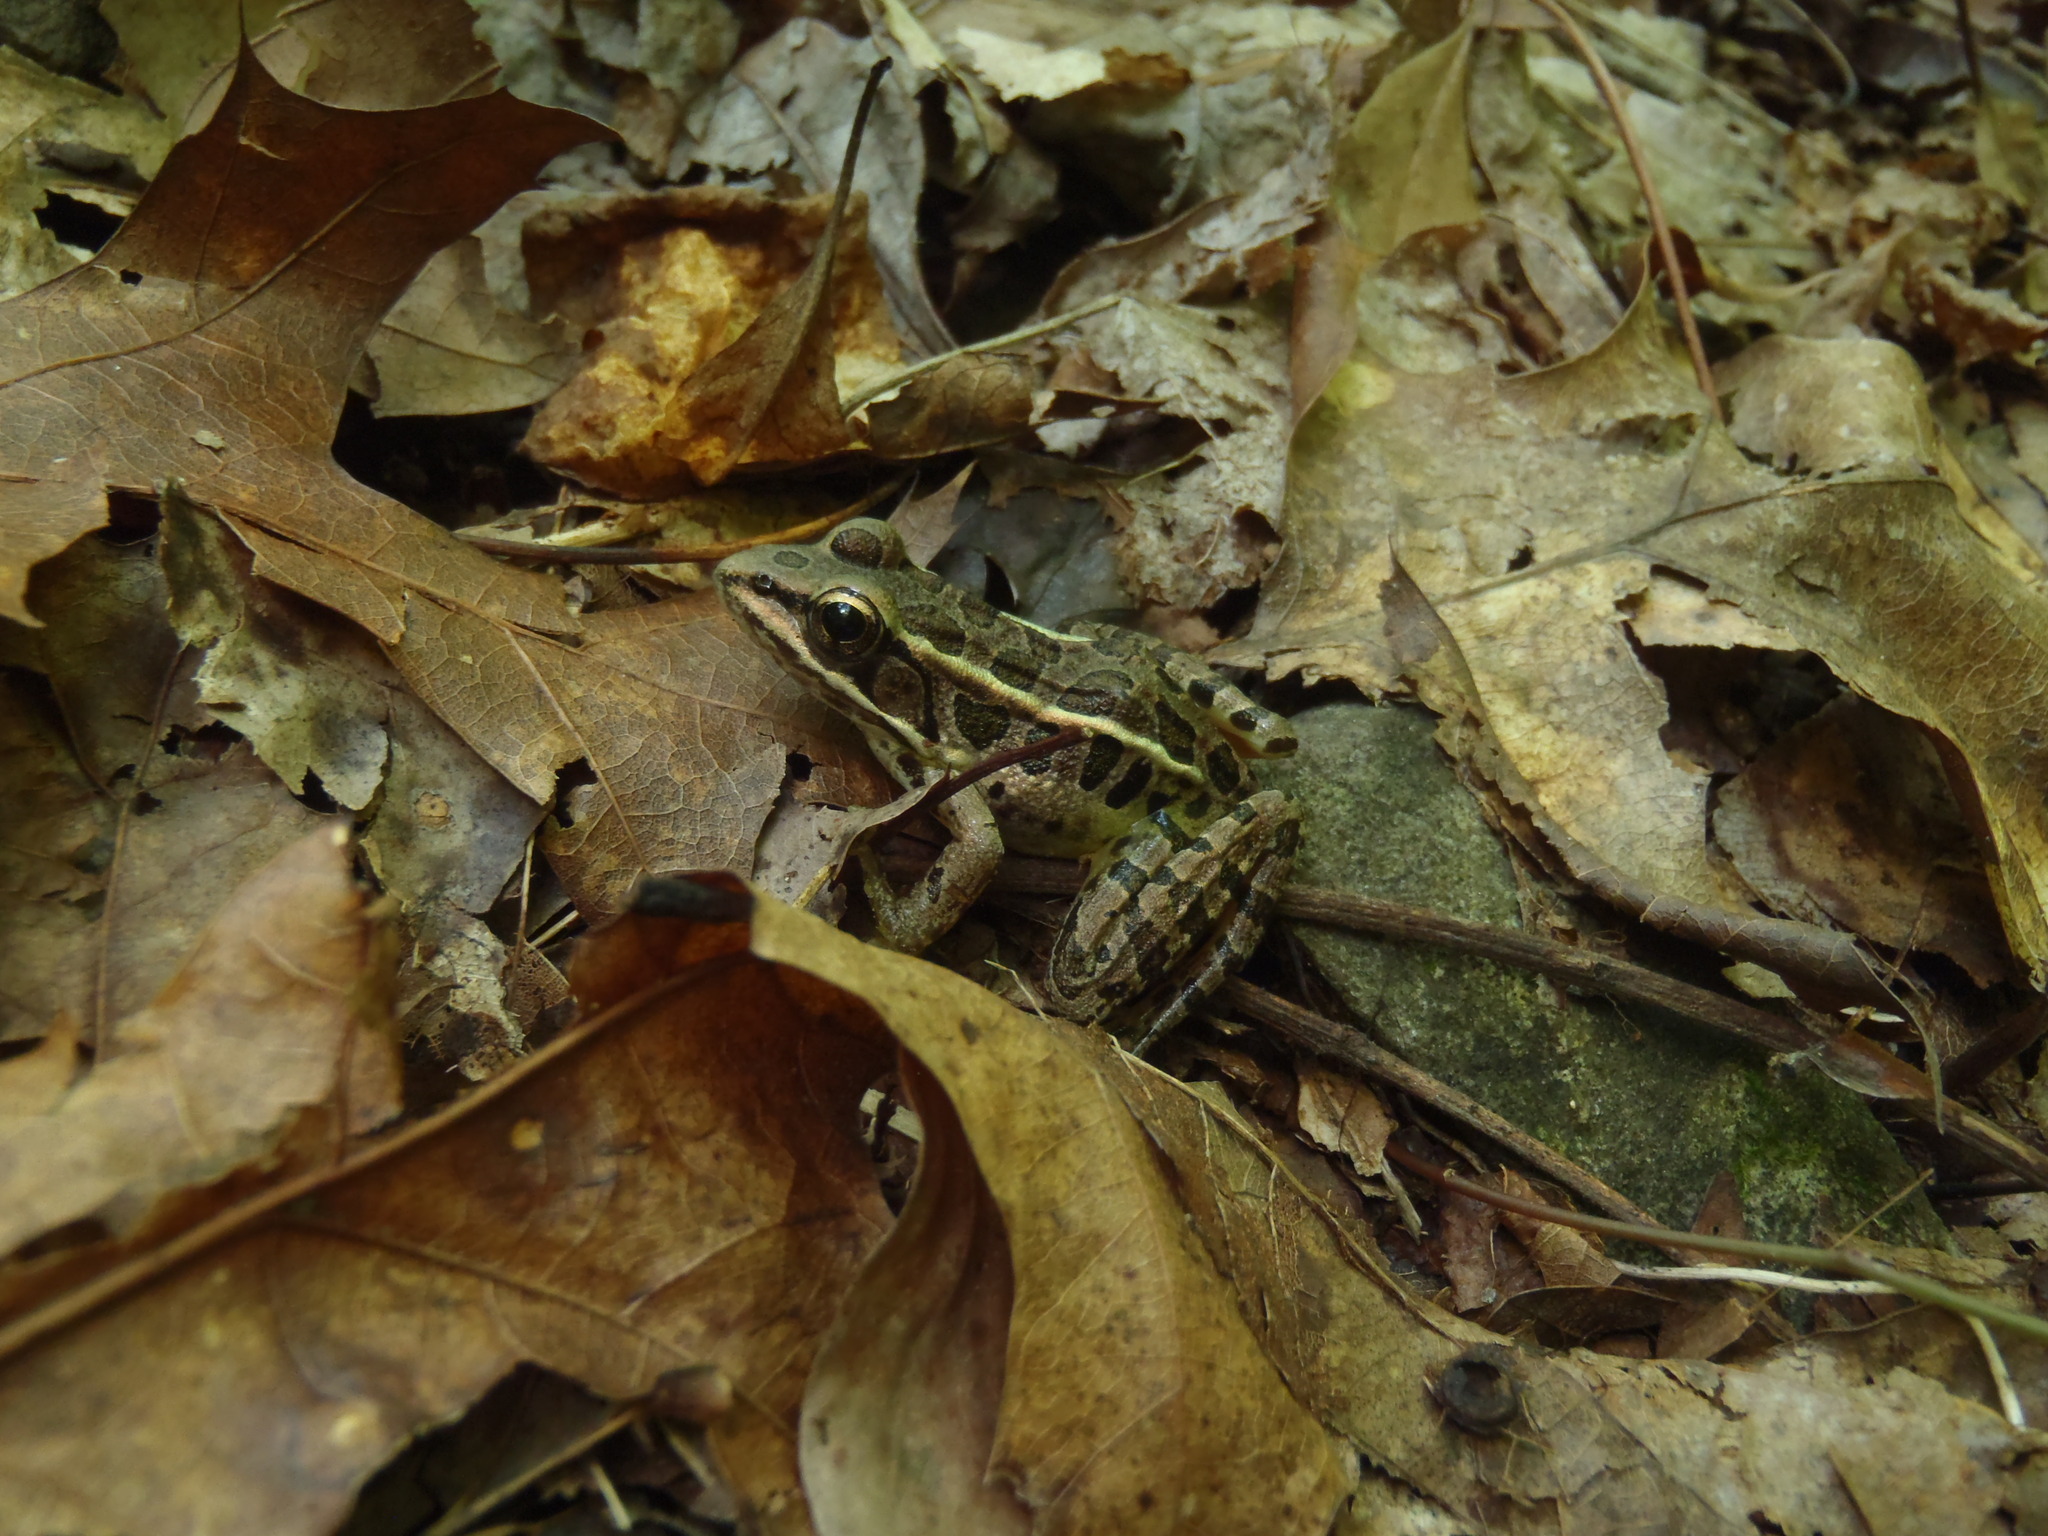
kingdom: Animalia
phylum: Chordata
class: Amphibia
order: Anura
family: Ranidae
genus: Lithobates
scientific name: Lithobates palustris
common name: Pickerel frog
